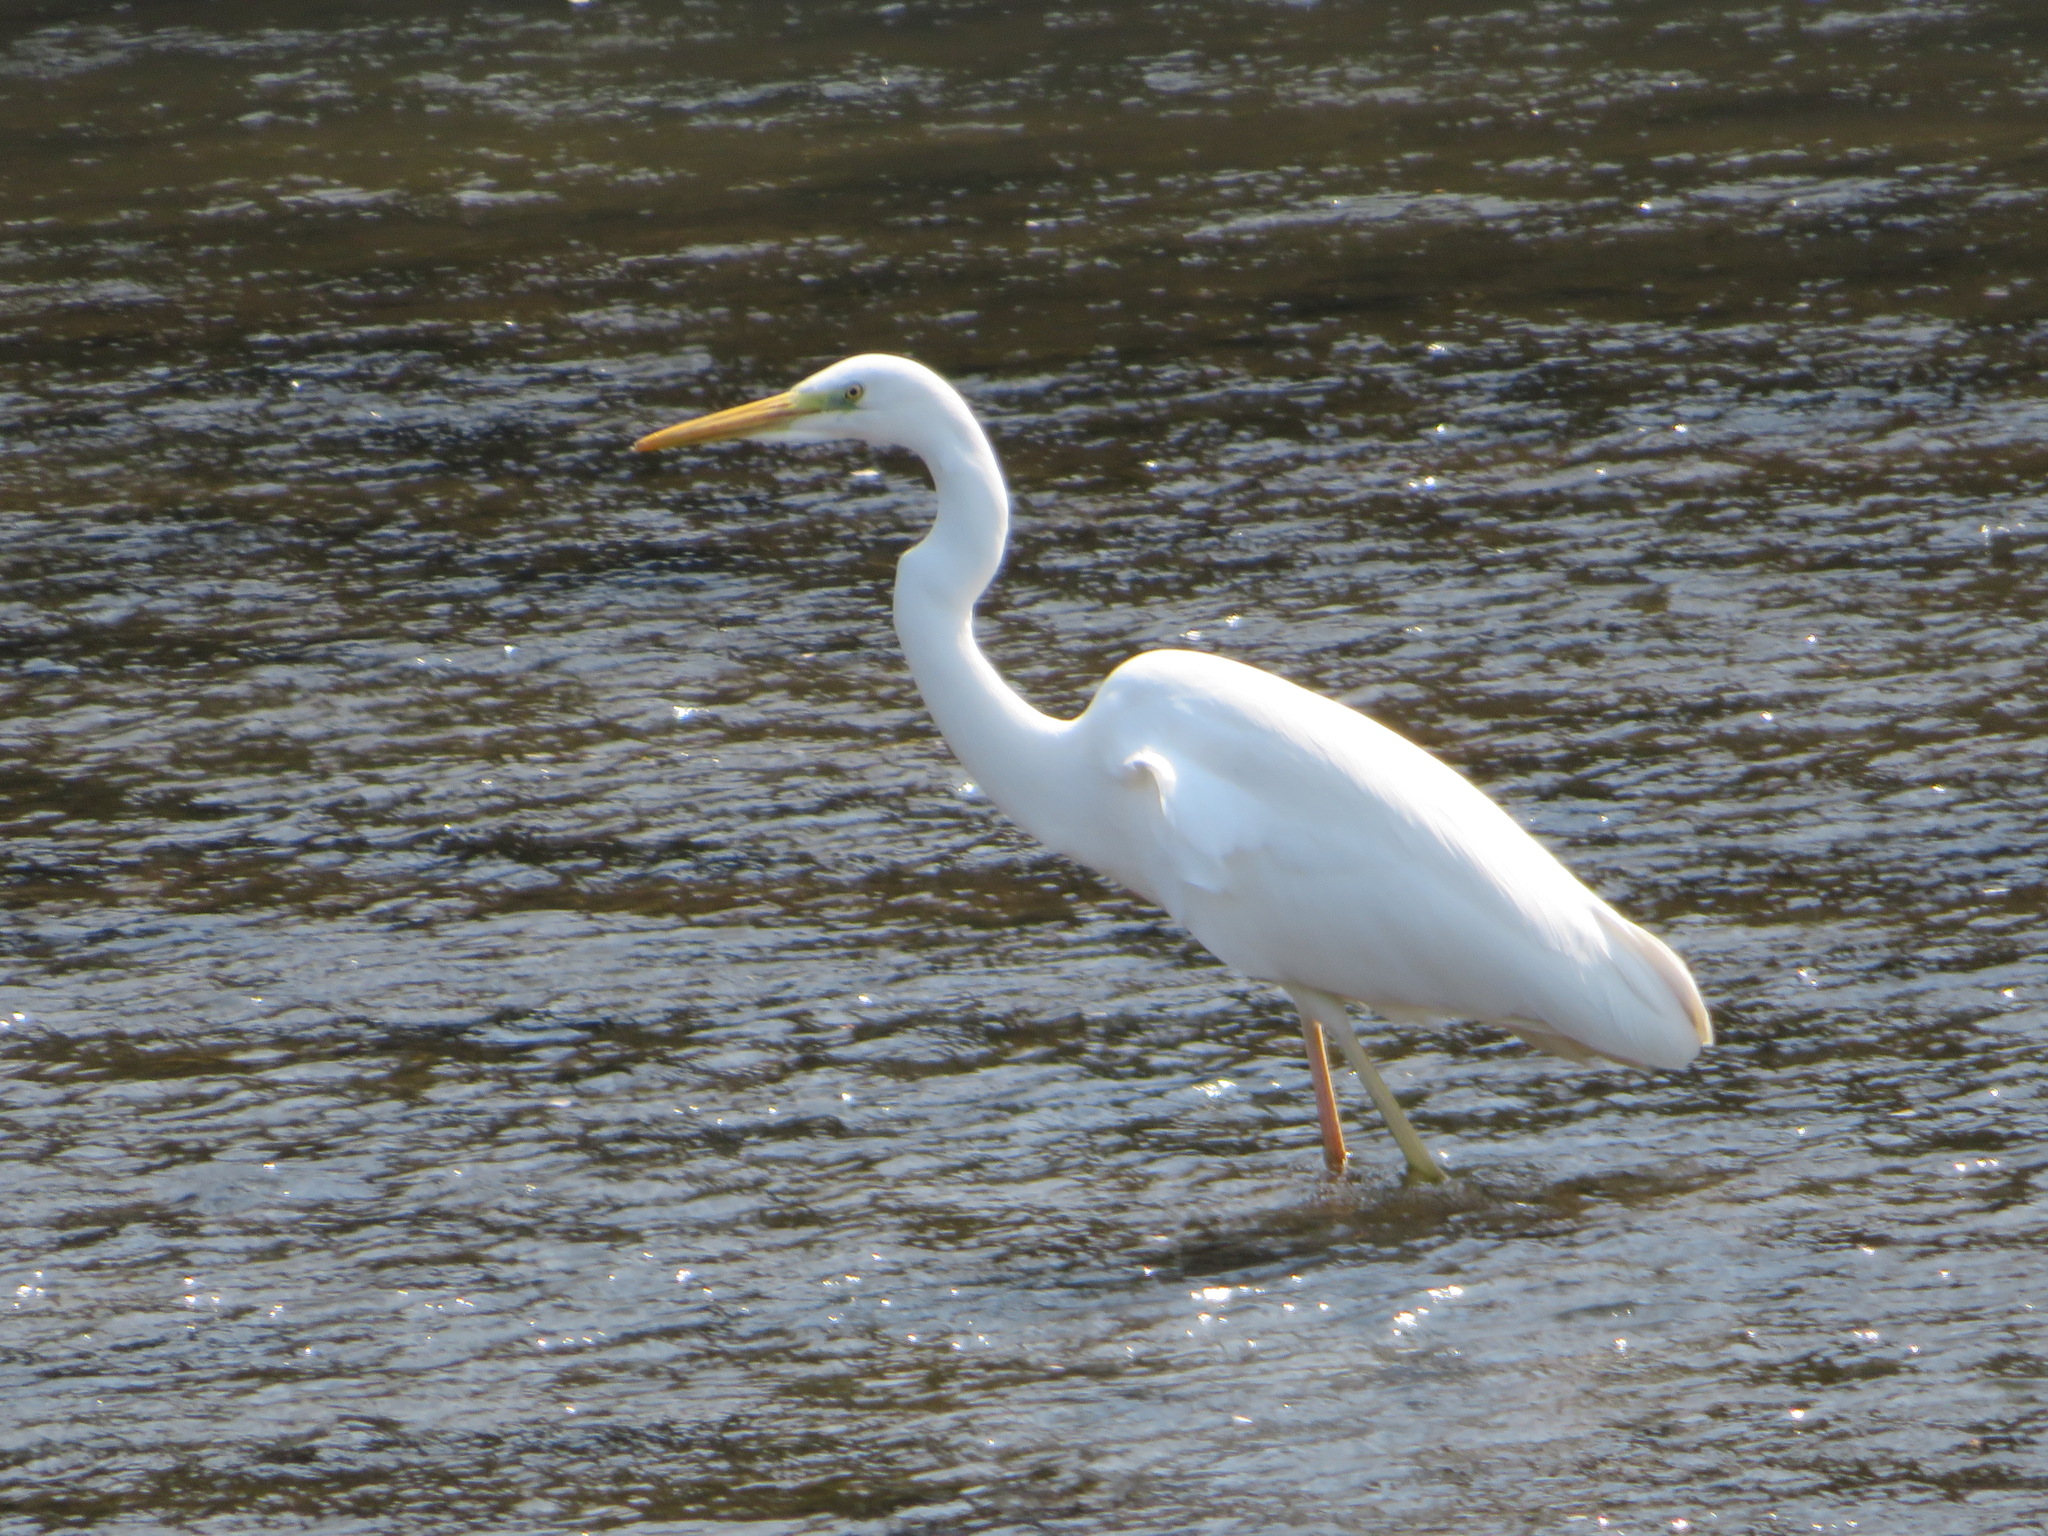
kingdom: Animalia
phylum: Chordata
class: Aves
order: Pelecaniformes
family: Ardeidae
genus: Ardea
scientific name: Ardea alba
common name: Great egret
